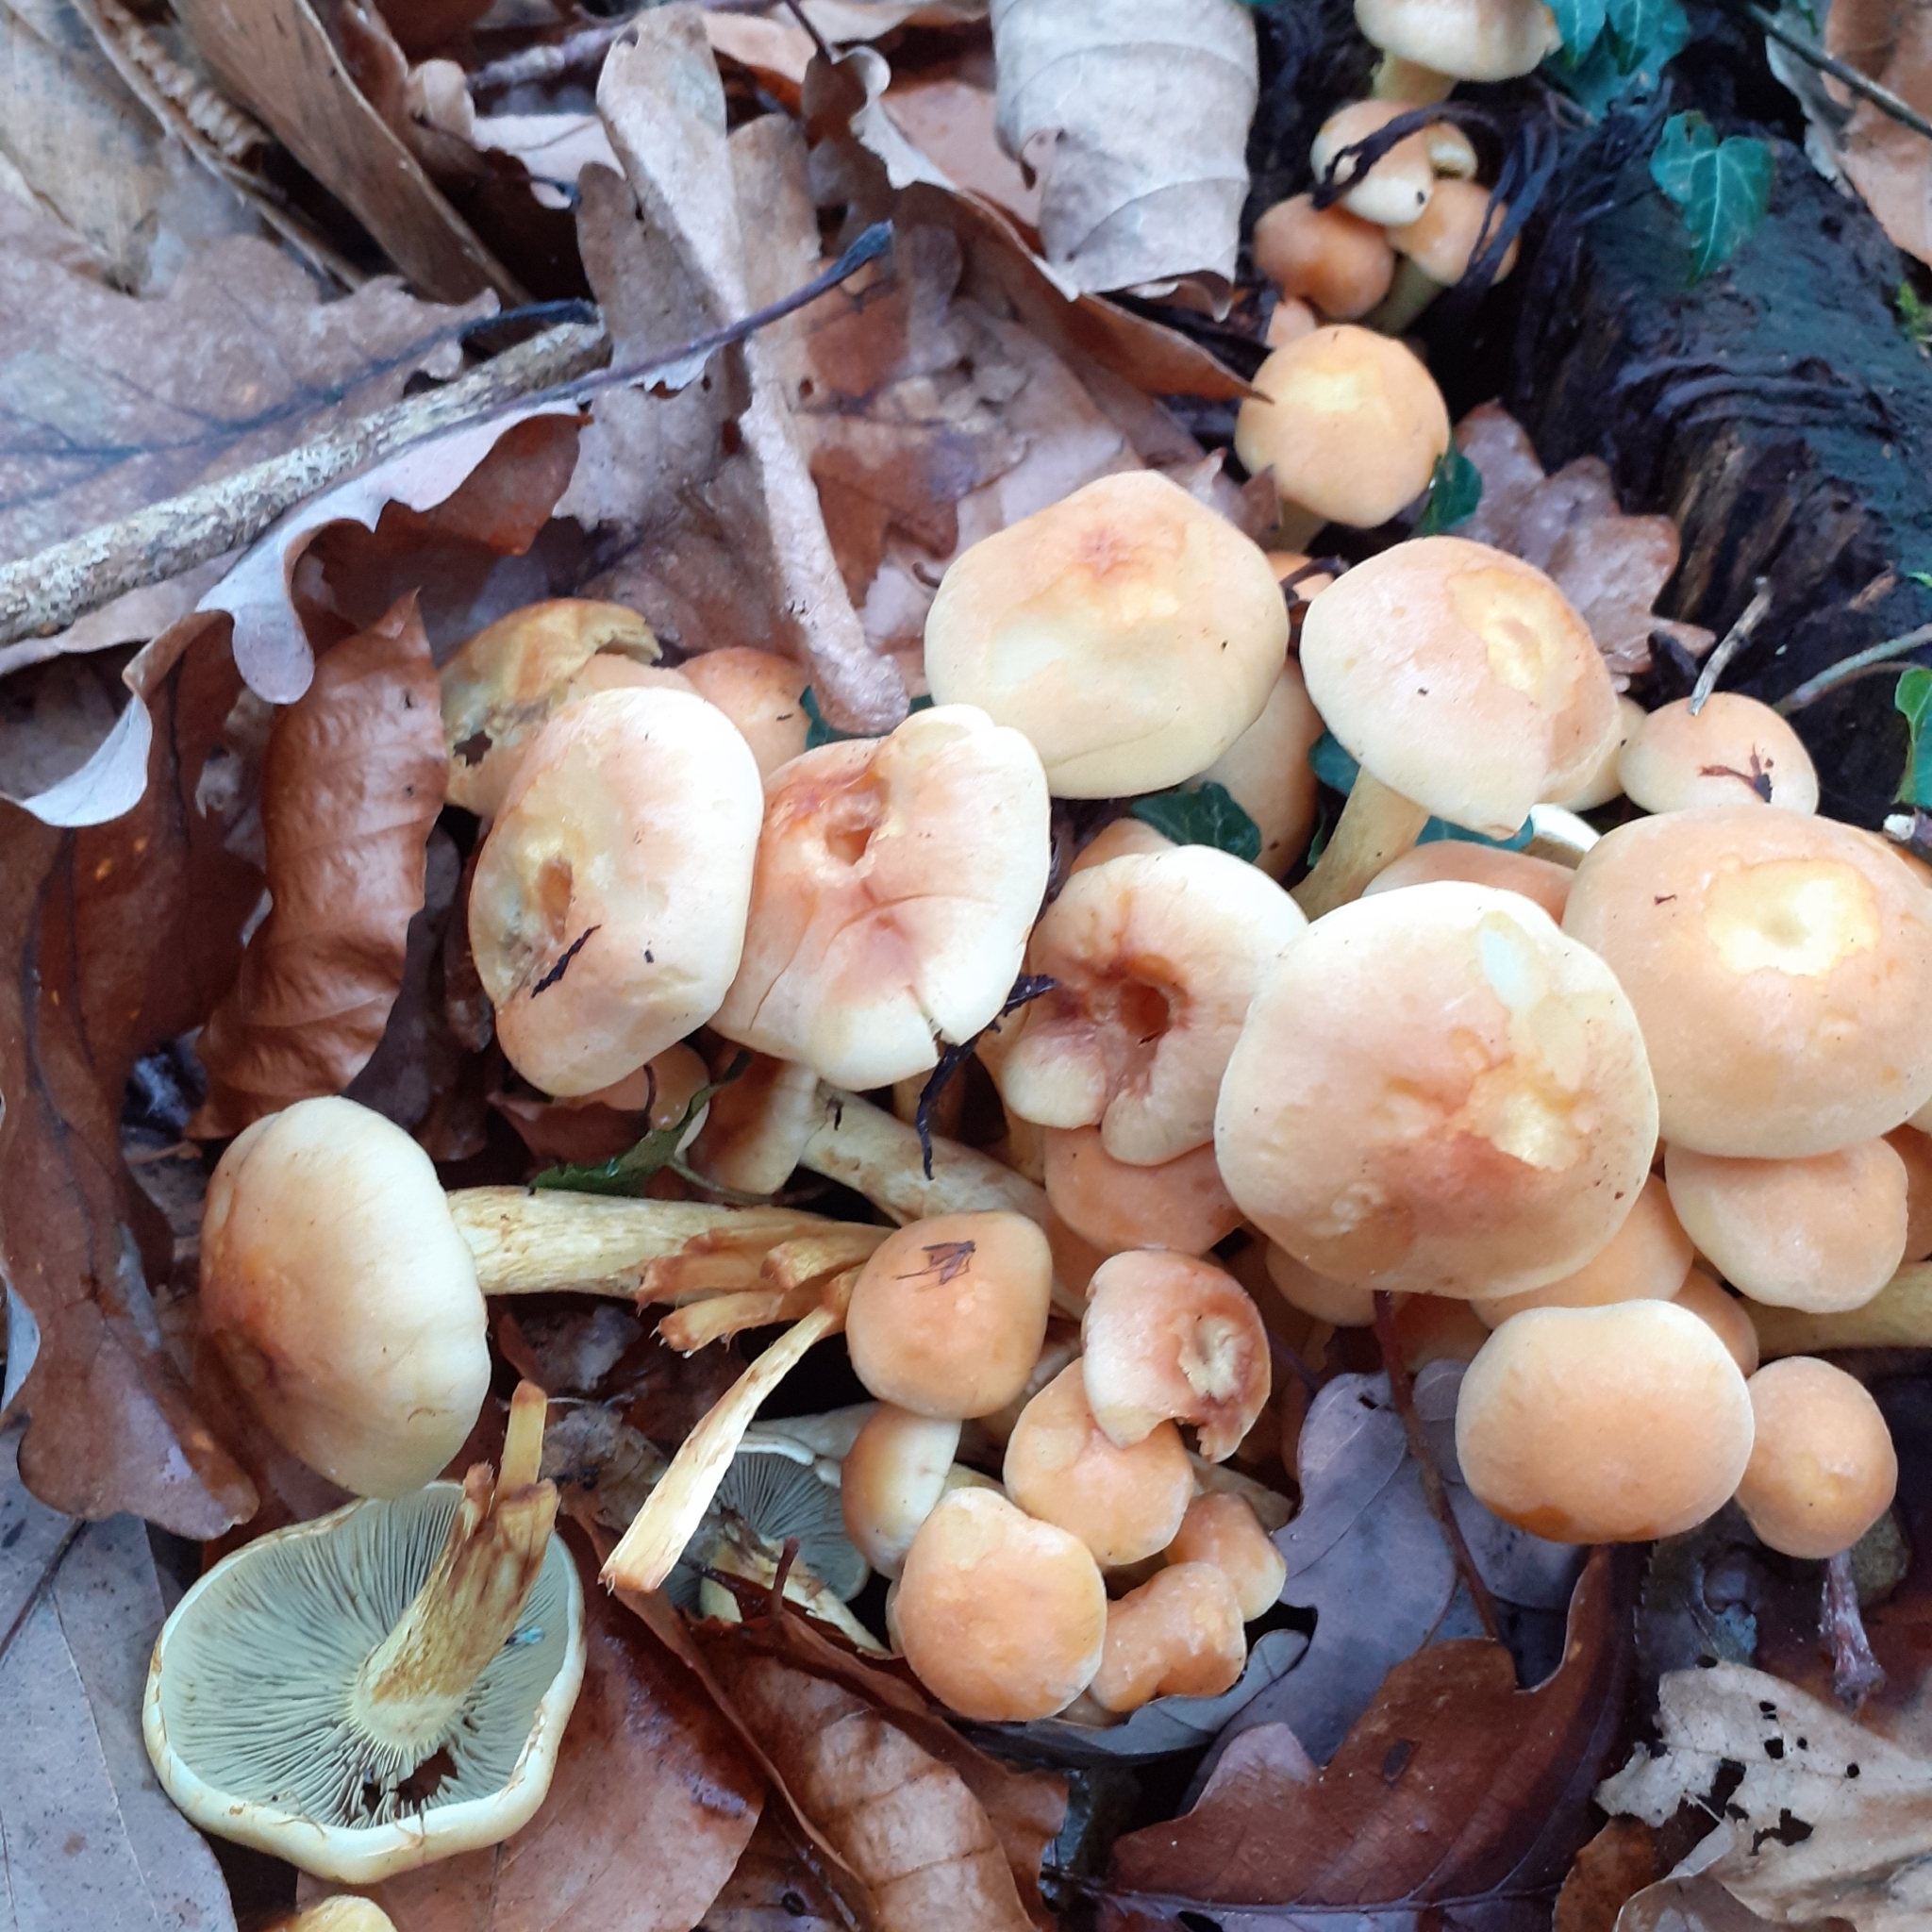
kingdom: Fungi
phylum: Basidiomycota
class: Agaricomycetes
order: Agaricales
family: Strophariaceae
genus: Hypholoma
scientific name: Hypholoma fasciculare
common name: Sulphur tuft
